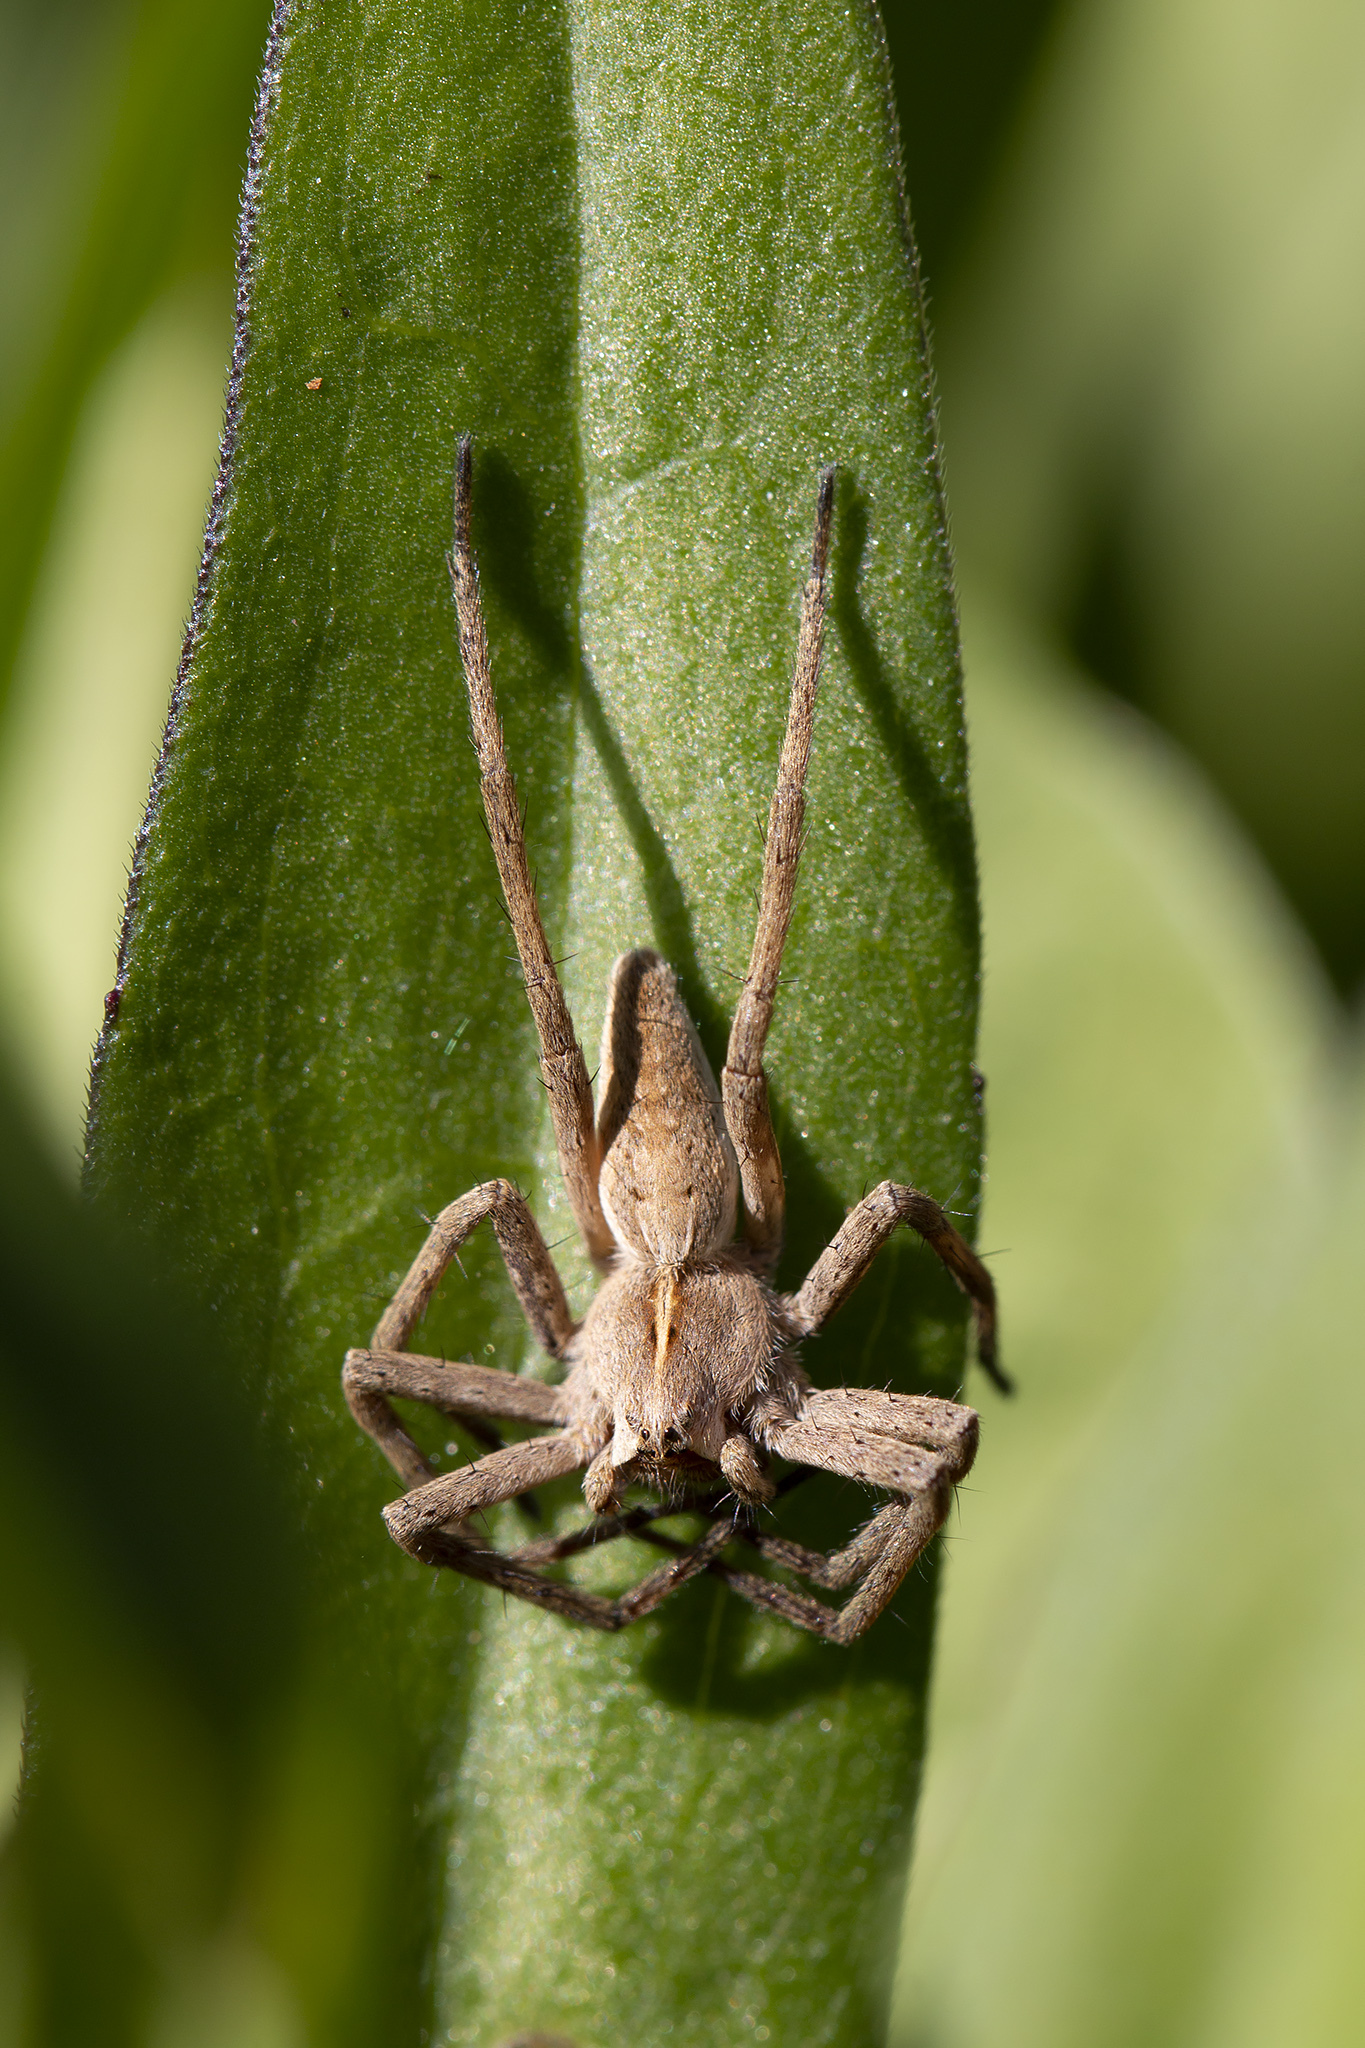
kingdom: Animalia
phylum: Arthropoda
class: Arachnida
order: Araneae
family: Pisauridae
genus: Pisaura
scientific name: Pisaura mirabilis
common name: Tent spider
